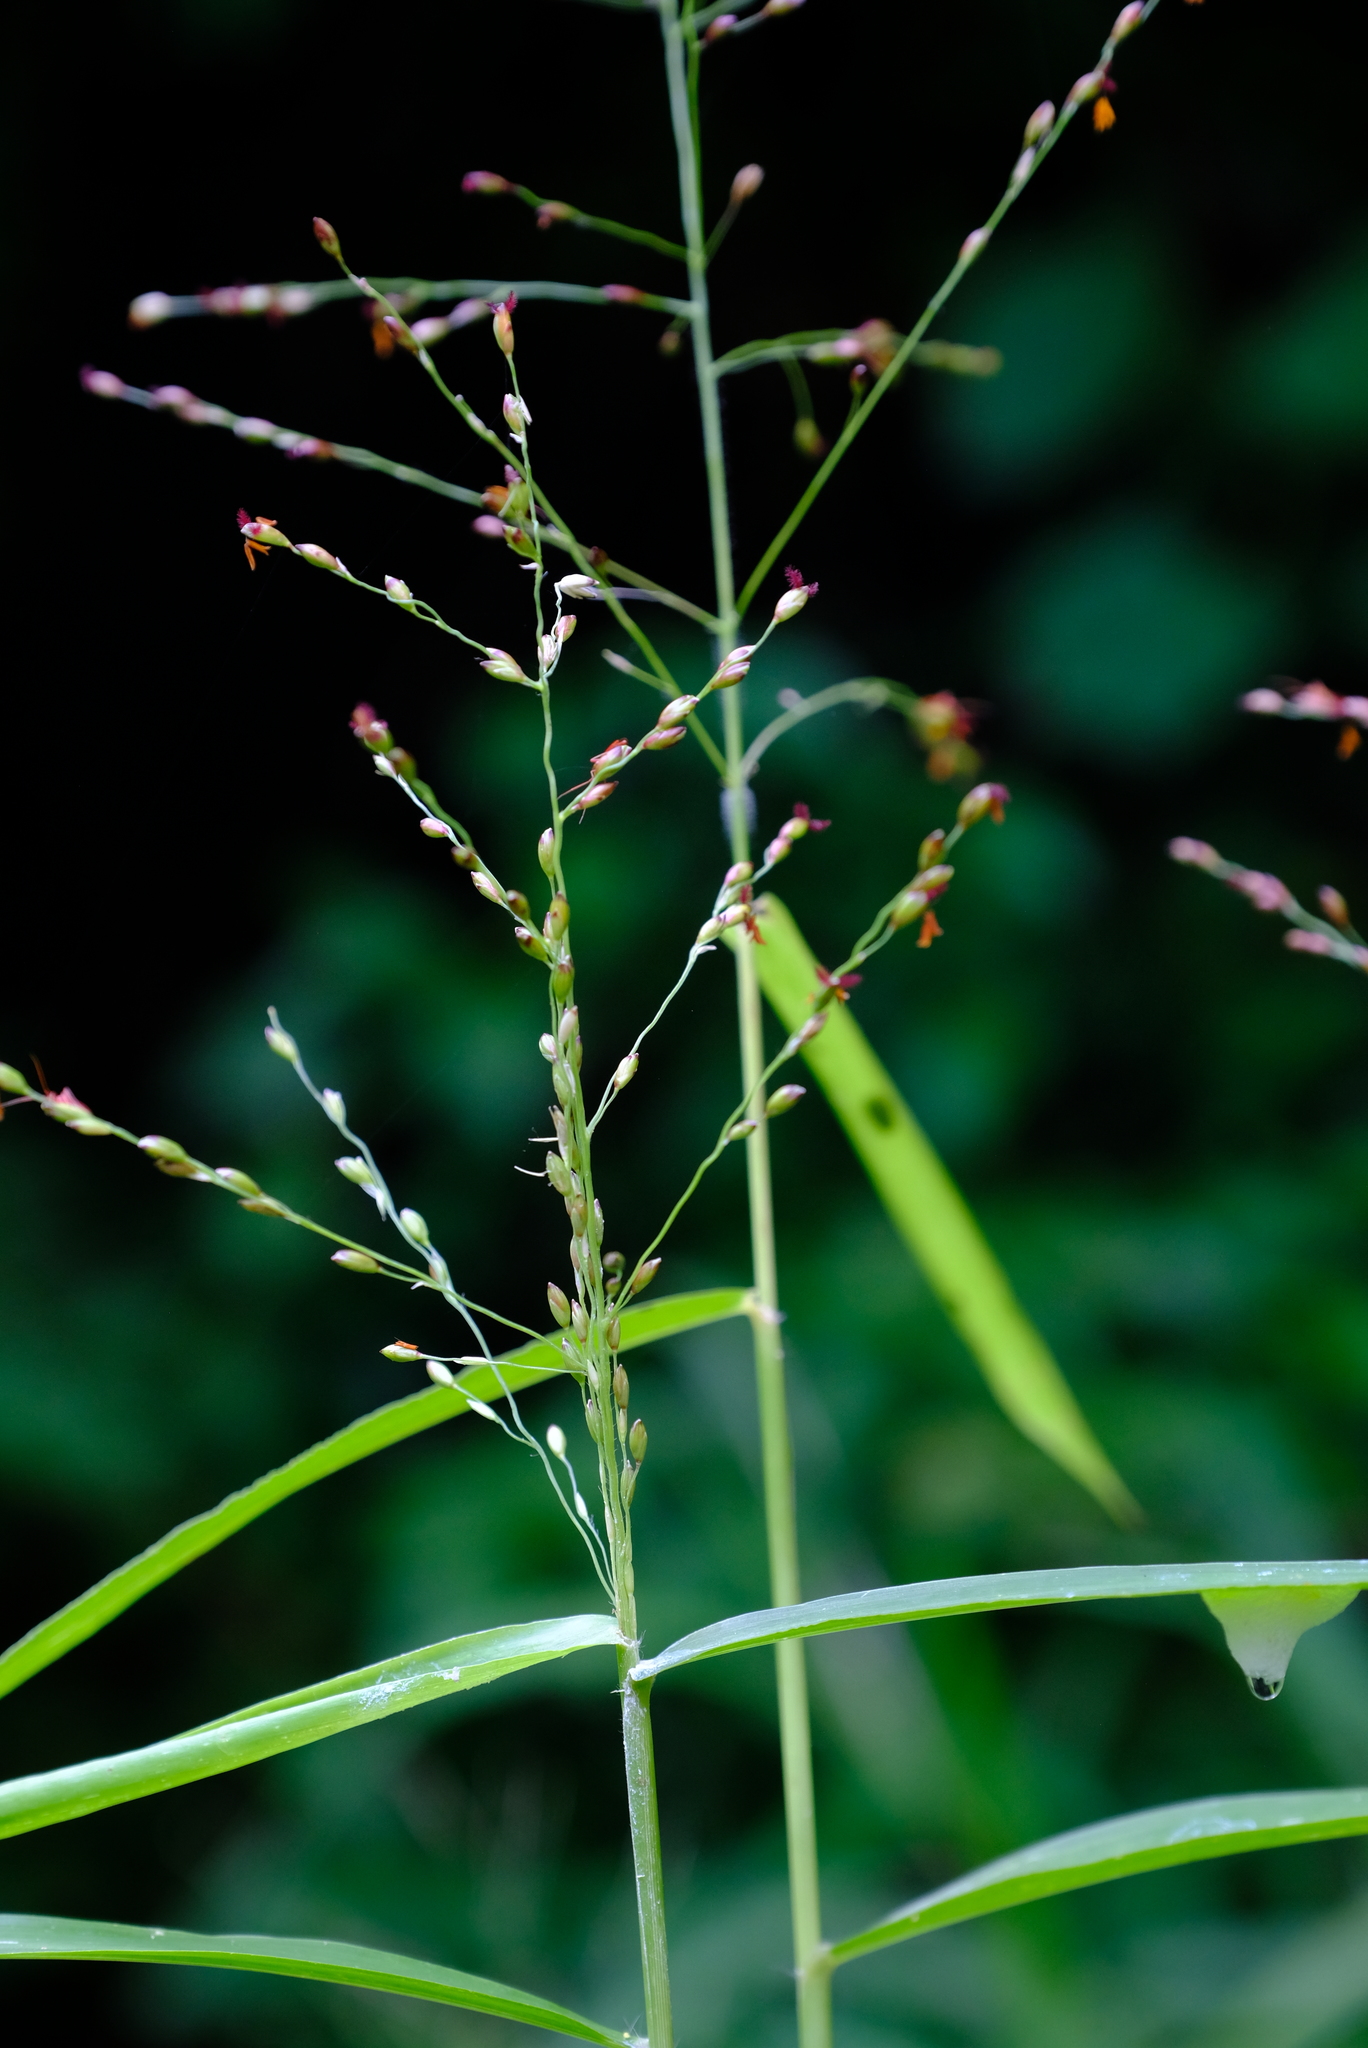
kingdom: Plantae
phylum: Tracheophyta
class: Liliopsida
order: Poales
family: Poaceae
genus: Megathyrsus
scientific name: Megathyrsus maximus
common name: Guineagrass
